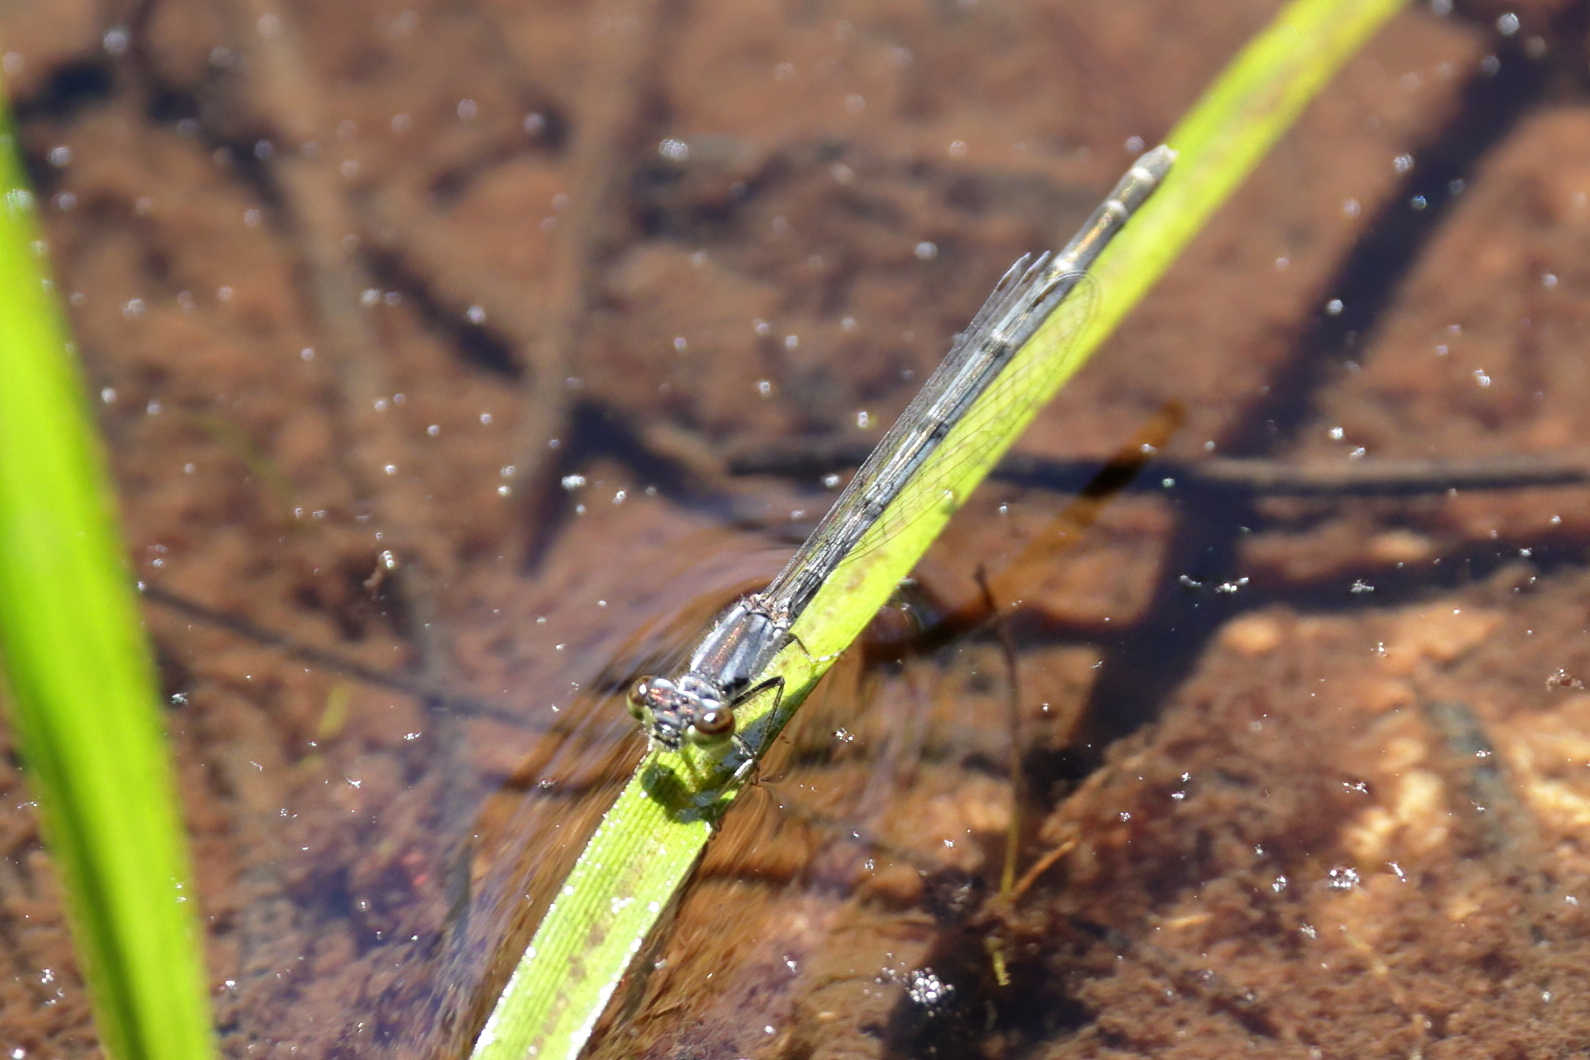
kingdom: Animalia
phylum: Arthropoda
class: Insecta
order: Odonata
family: Coenagrionidae
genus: Ischnura
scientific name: Ischnura posita
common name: Fragile forktail
